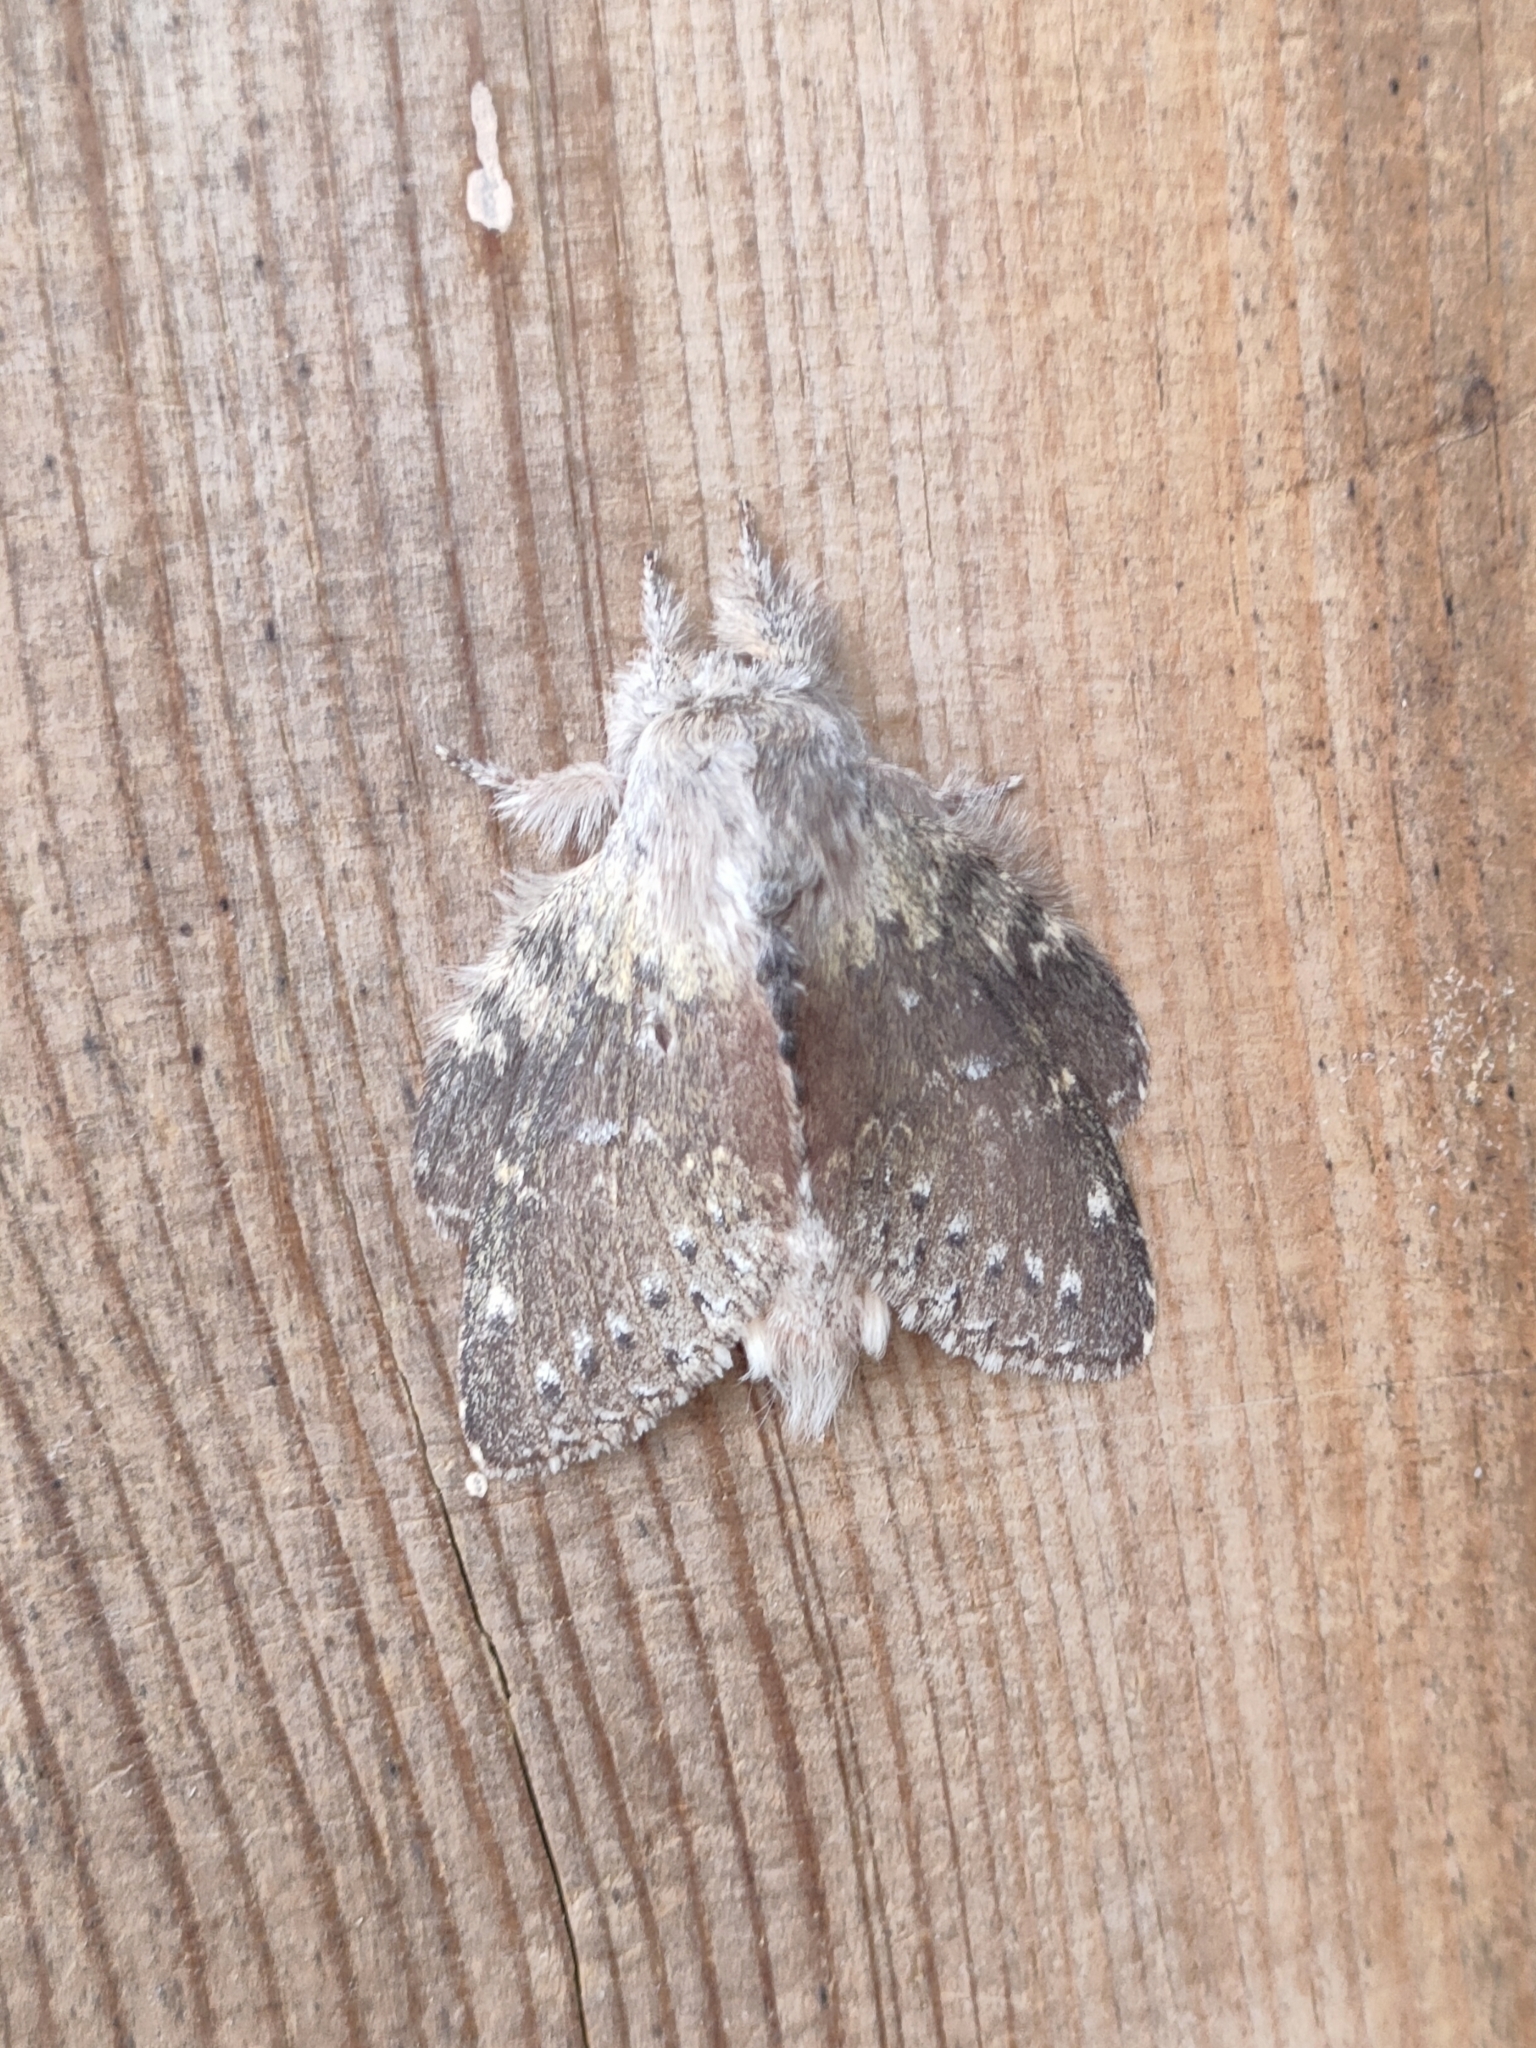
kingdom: Animalia
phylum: Arthropoda
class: Insecta
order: Lepidoptera
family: Notodontidae
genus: Stauropus
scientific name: Stauropus fagi
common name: Lobster moth
